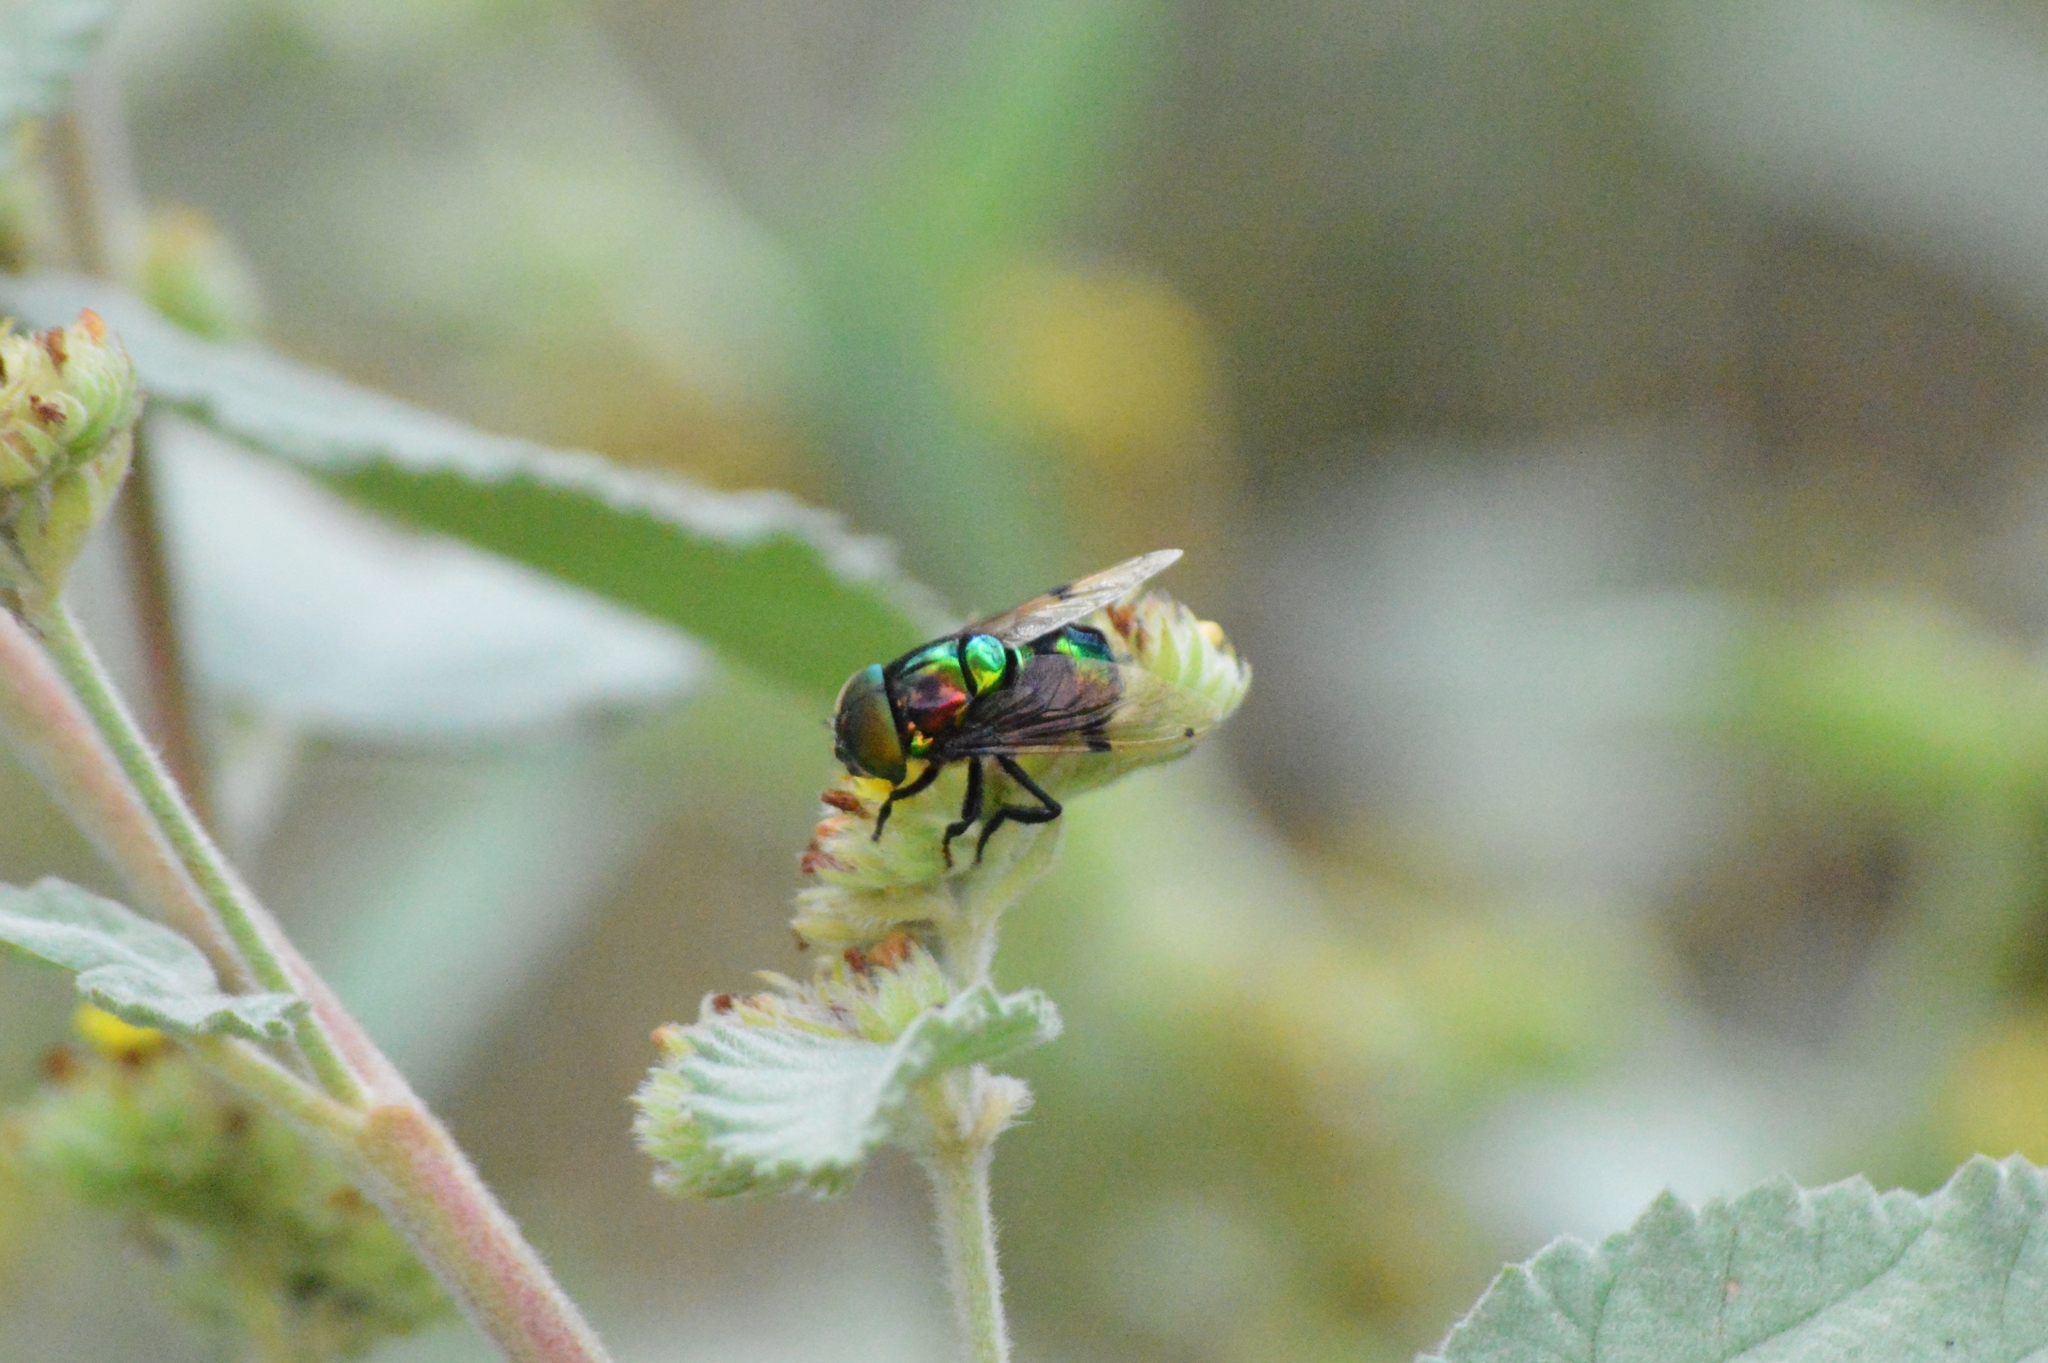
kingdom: Animalia
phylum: Arthropoda
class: Insecta
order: Diptera
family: Syrphidae
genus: Ornidia
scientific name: Ornidia obesa
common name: Syrphid fly
